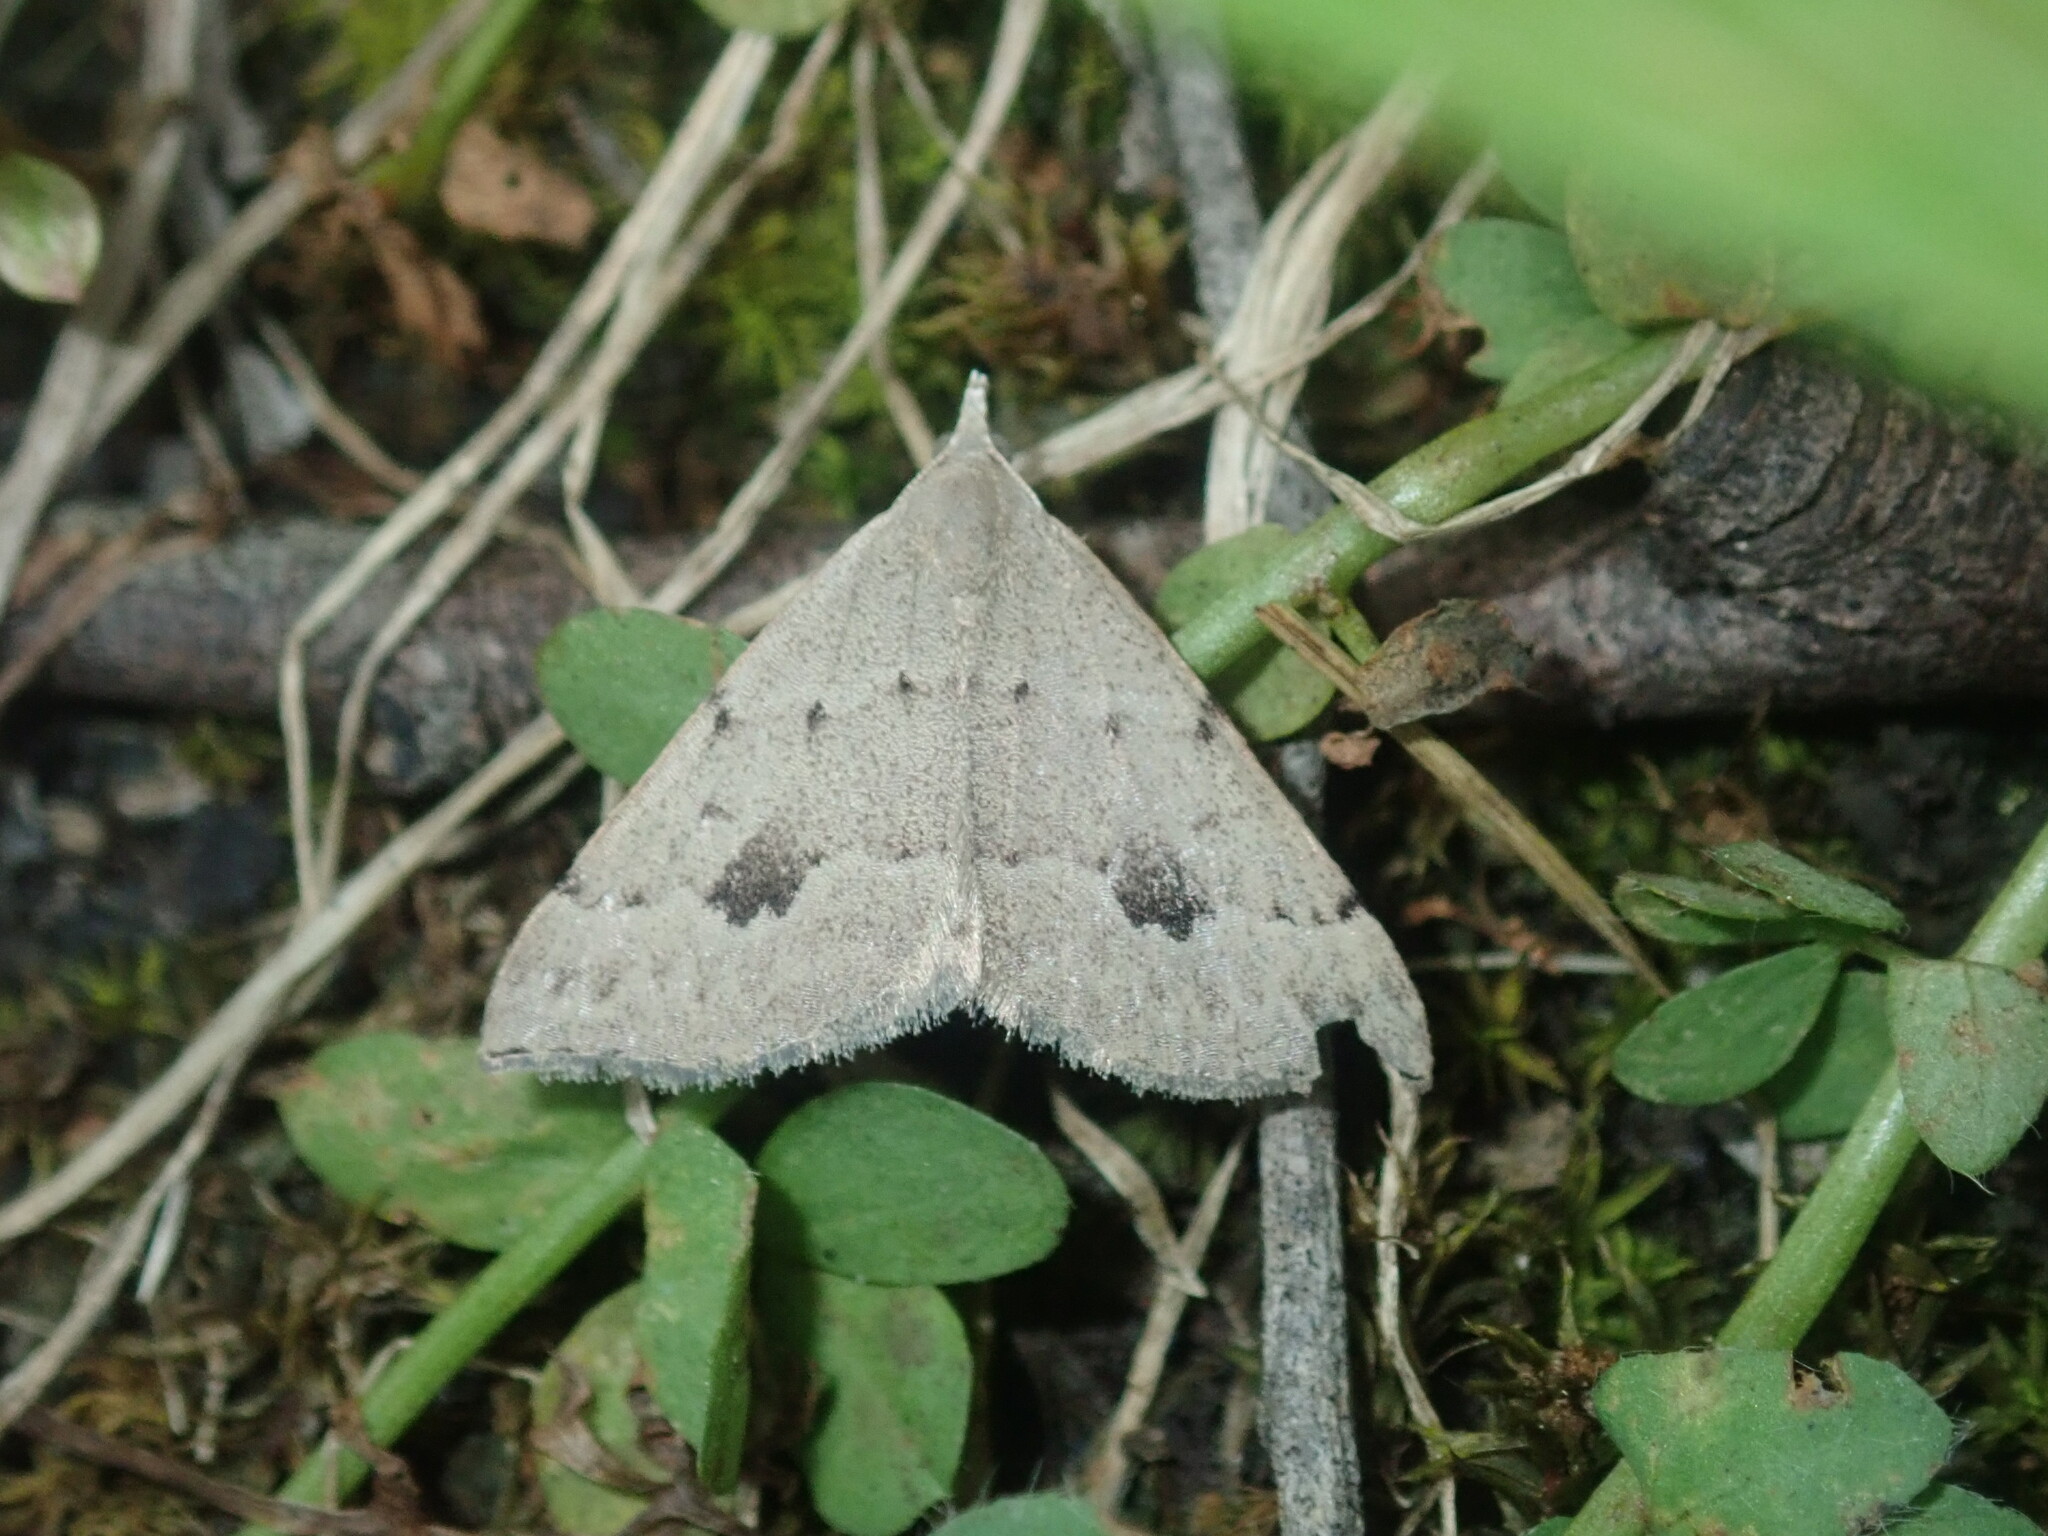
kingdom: Animalia
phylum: Arthropoda
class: Insecta
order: Lepidoptera
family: Geometridae
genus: Dichromodes
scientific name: Dichromodes estigmaria
